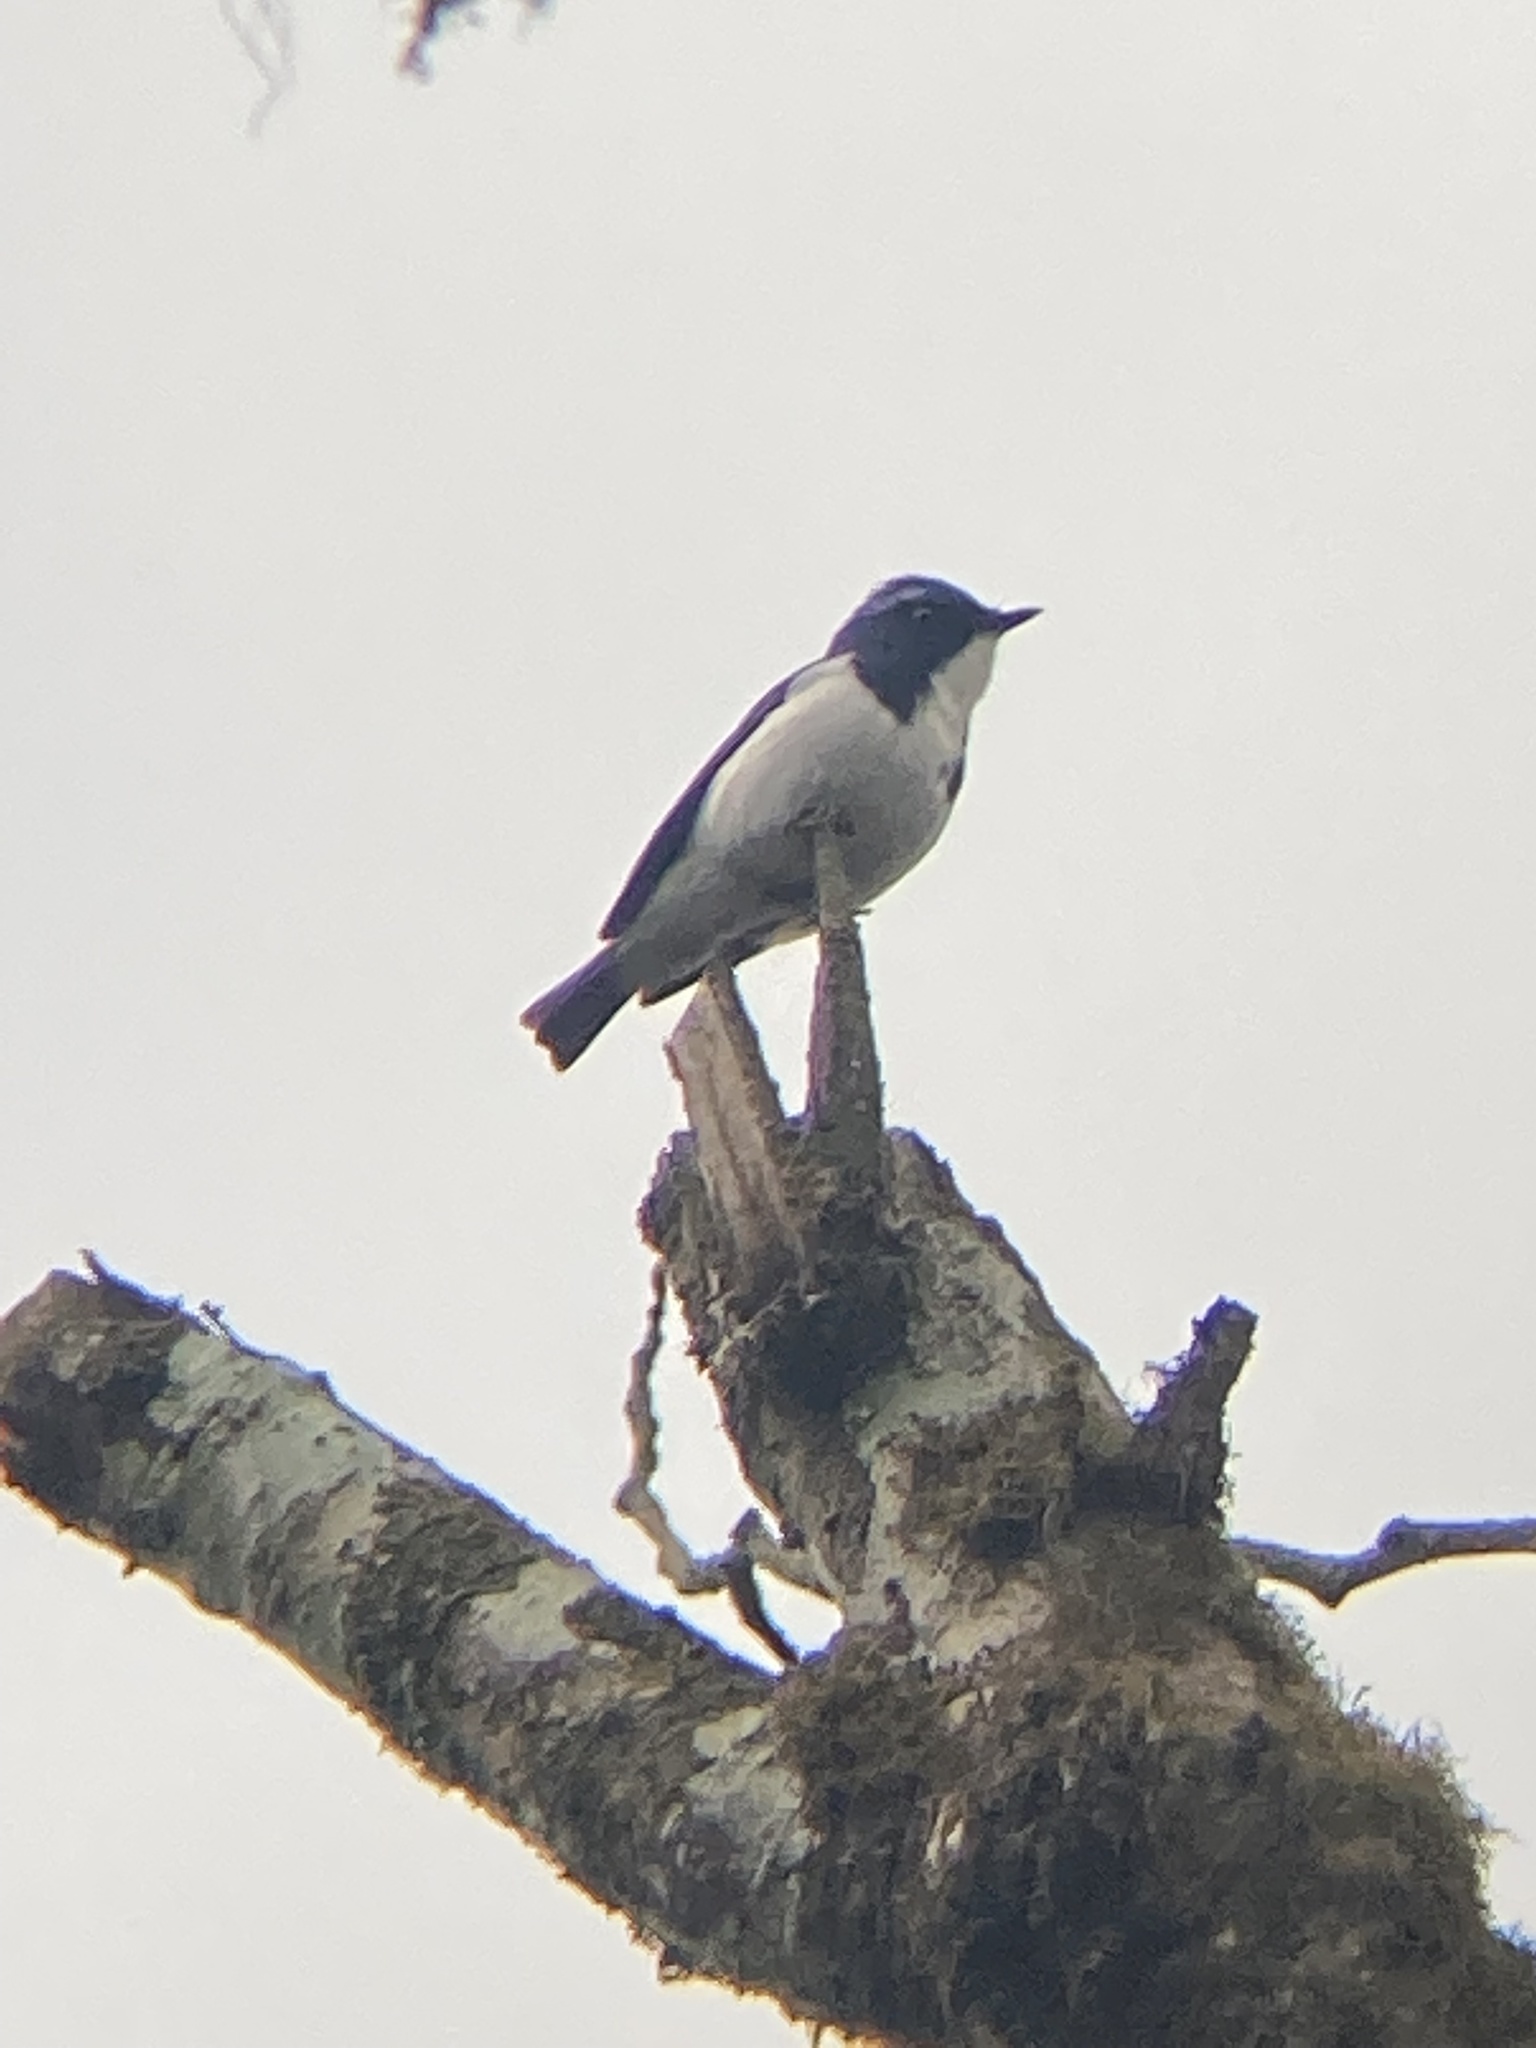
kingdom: Animalia
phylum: Chordata
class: Aves
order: Passeriformes
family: Muscicapidae
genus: Ficedula
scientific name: Ficedula superciliaris
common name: Ultramarine flycatcher
